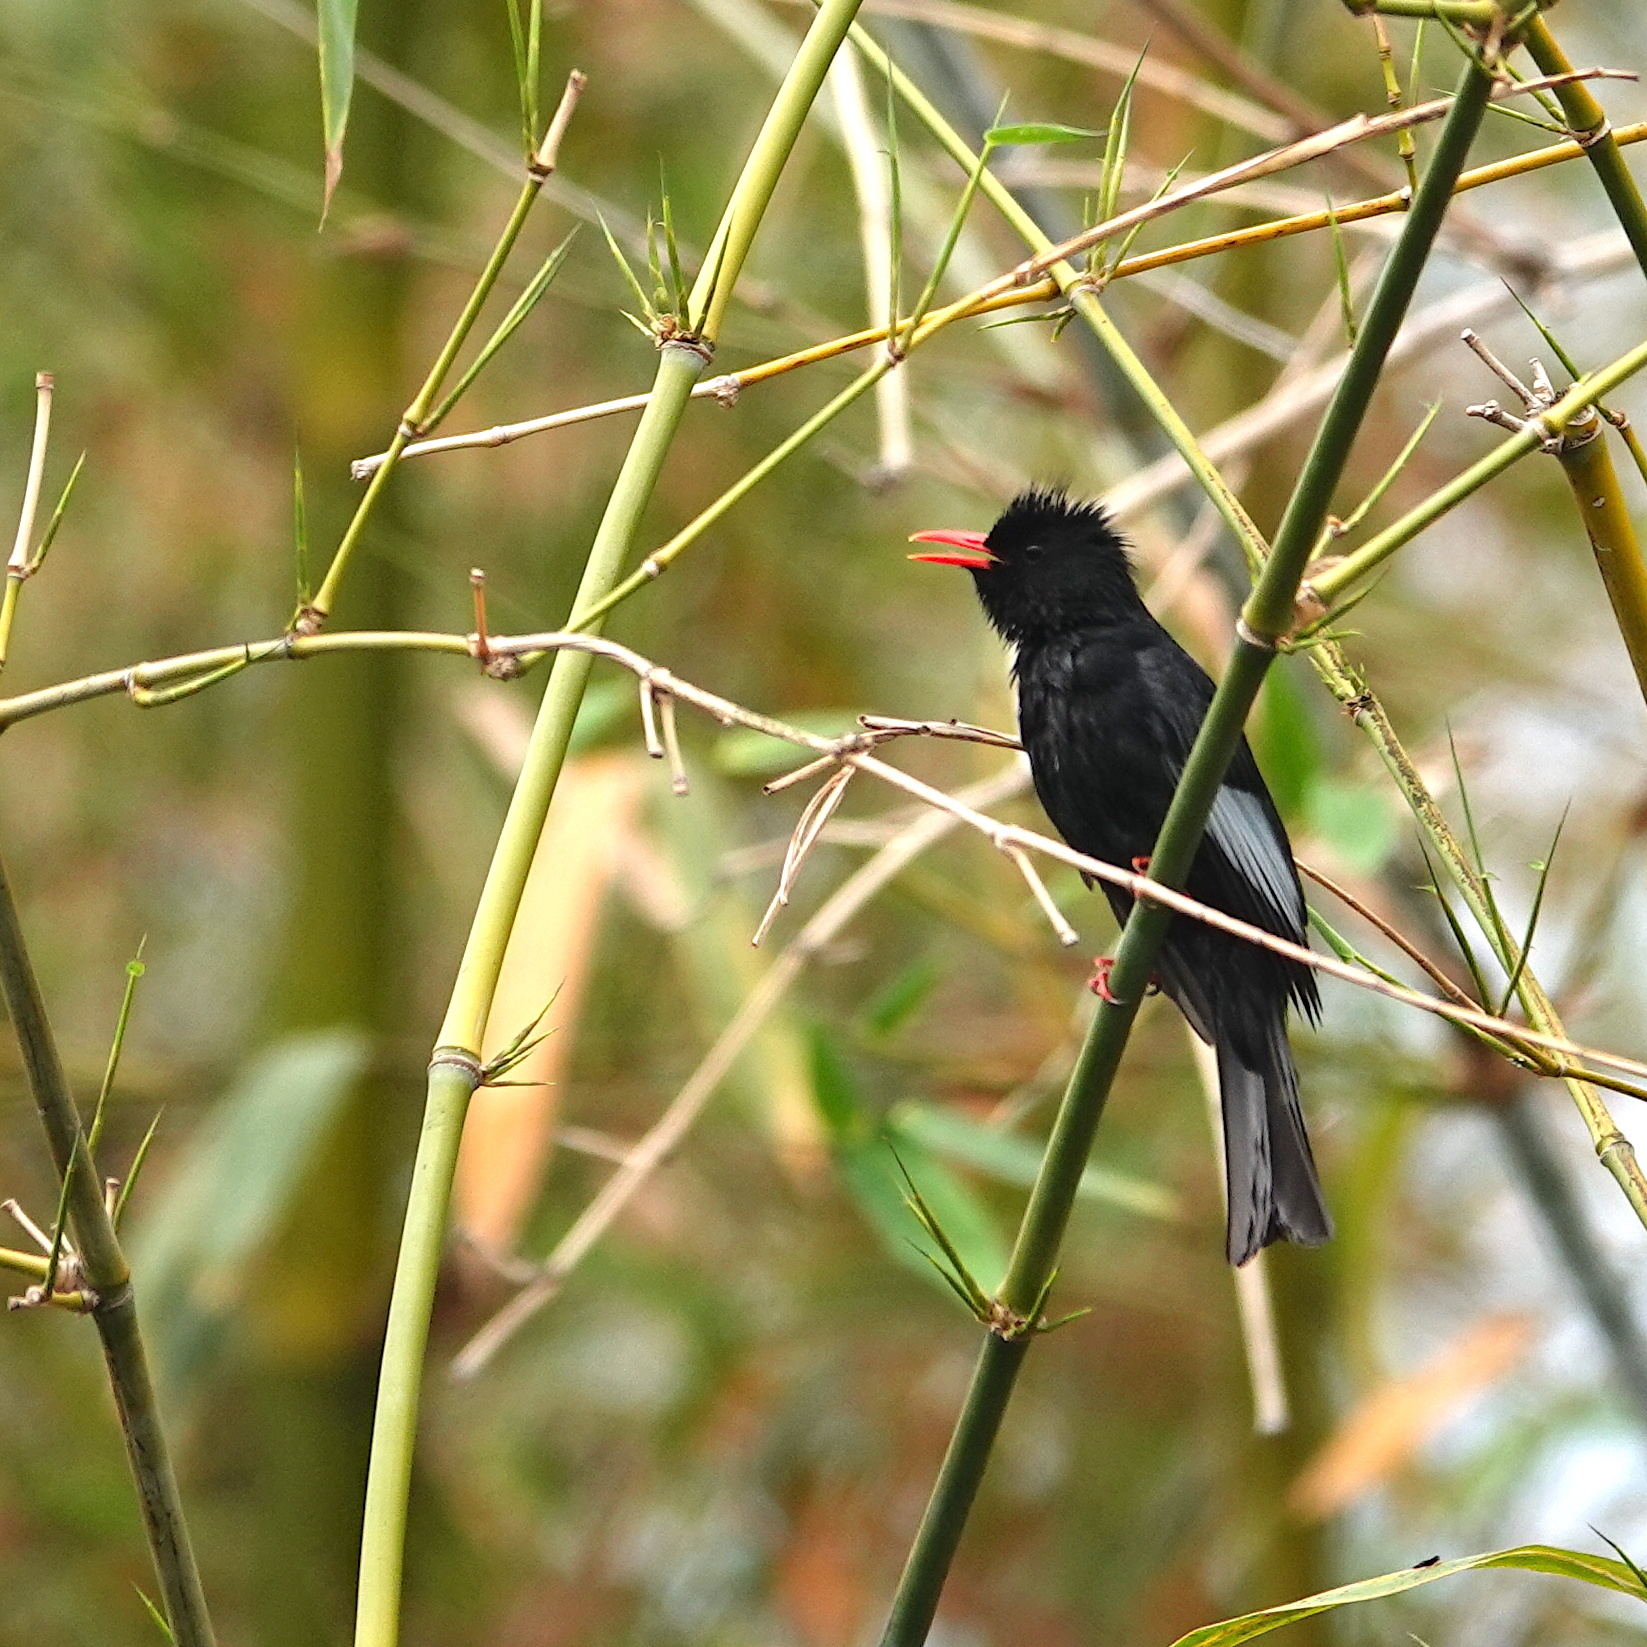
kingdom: Animalia
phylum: Chordata
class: Aves
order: Passeriformes
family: Pycnonotidae
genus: Hypsipetes
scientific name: Hypsipetes leucocephalus
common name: Black bulbul
